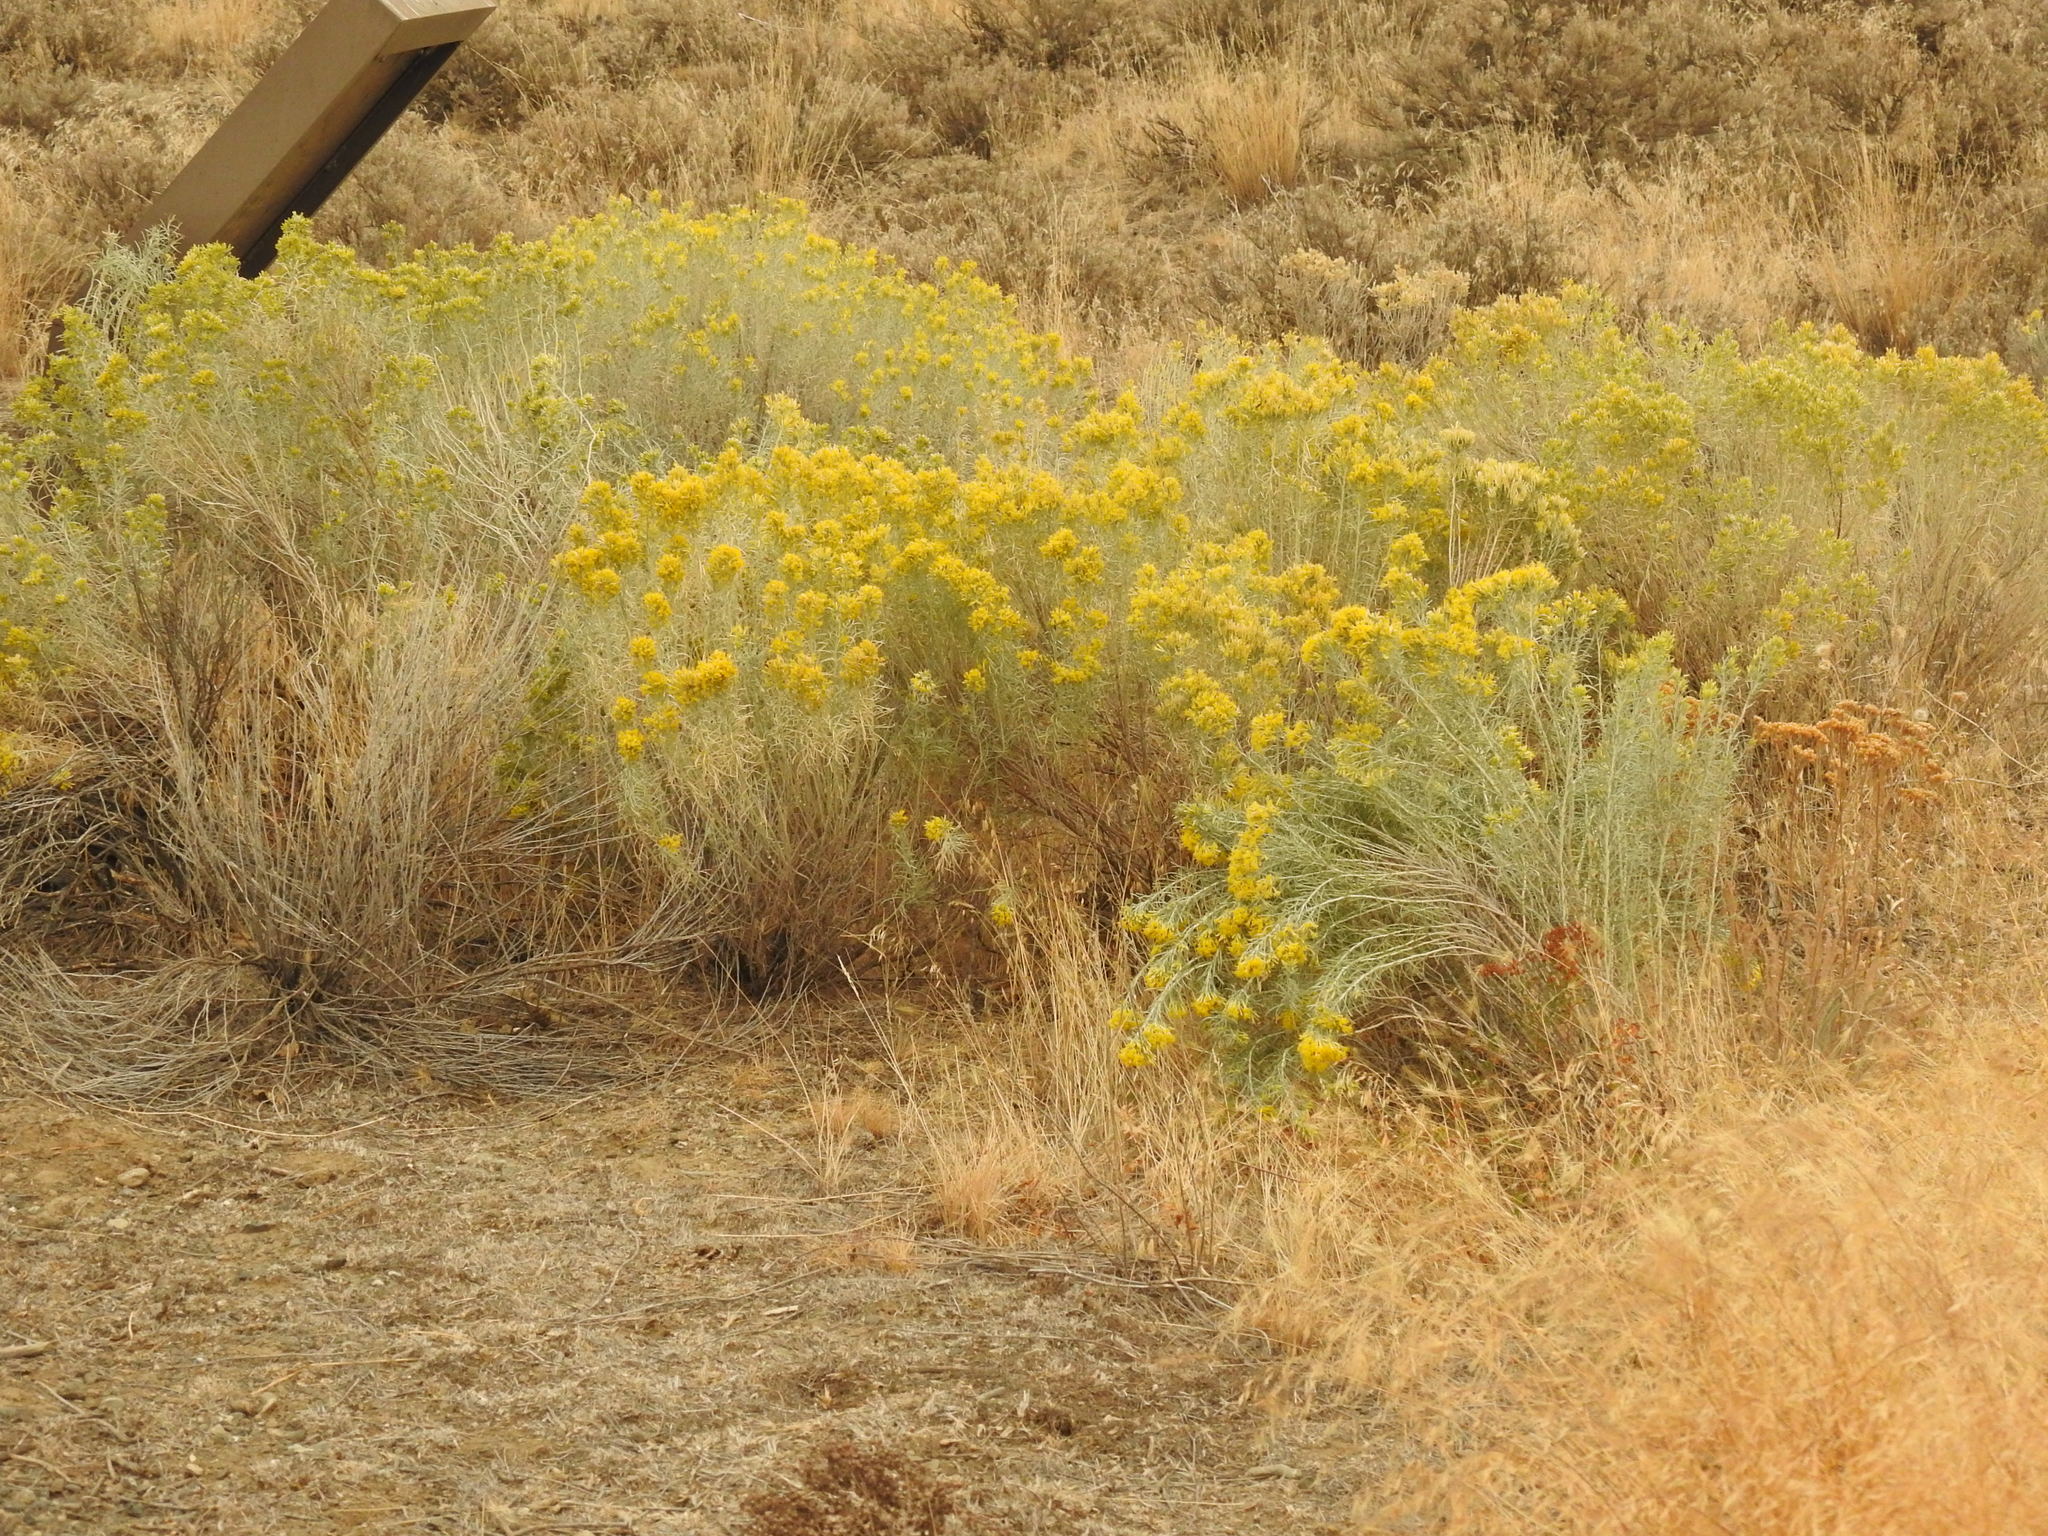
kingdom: Plantae
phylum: Tracheophyta
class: Magnoliopsida
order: Asterales
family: Asteraceae
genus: Ericameria
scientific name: Ericameria nauseosa
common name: Rubber rabbitbrush
